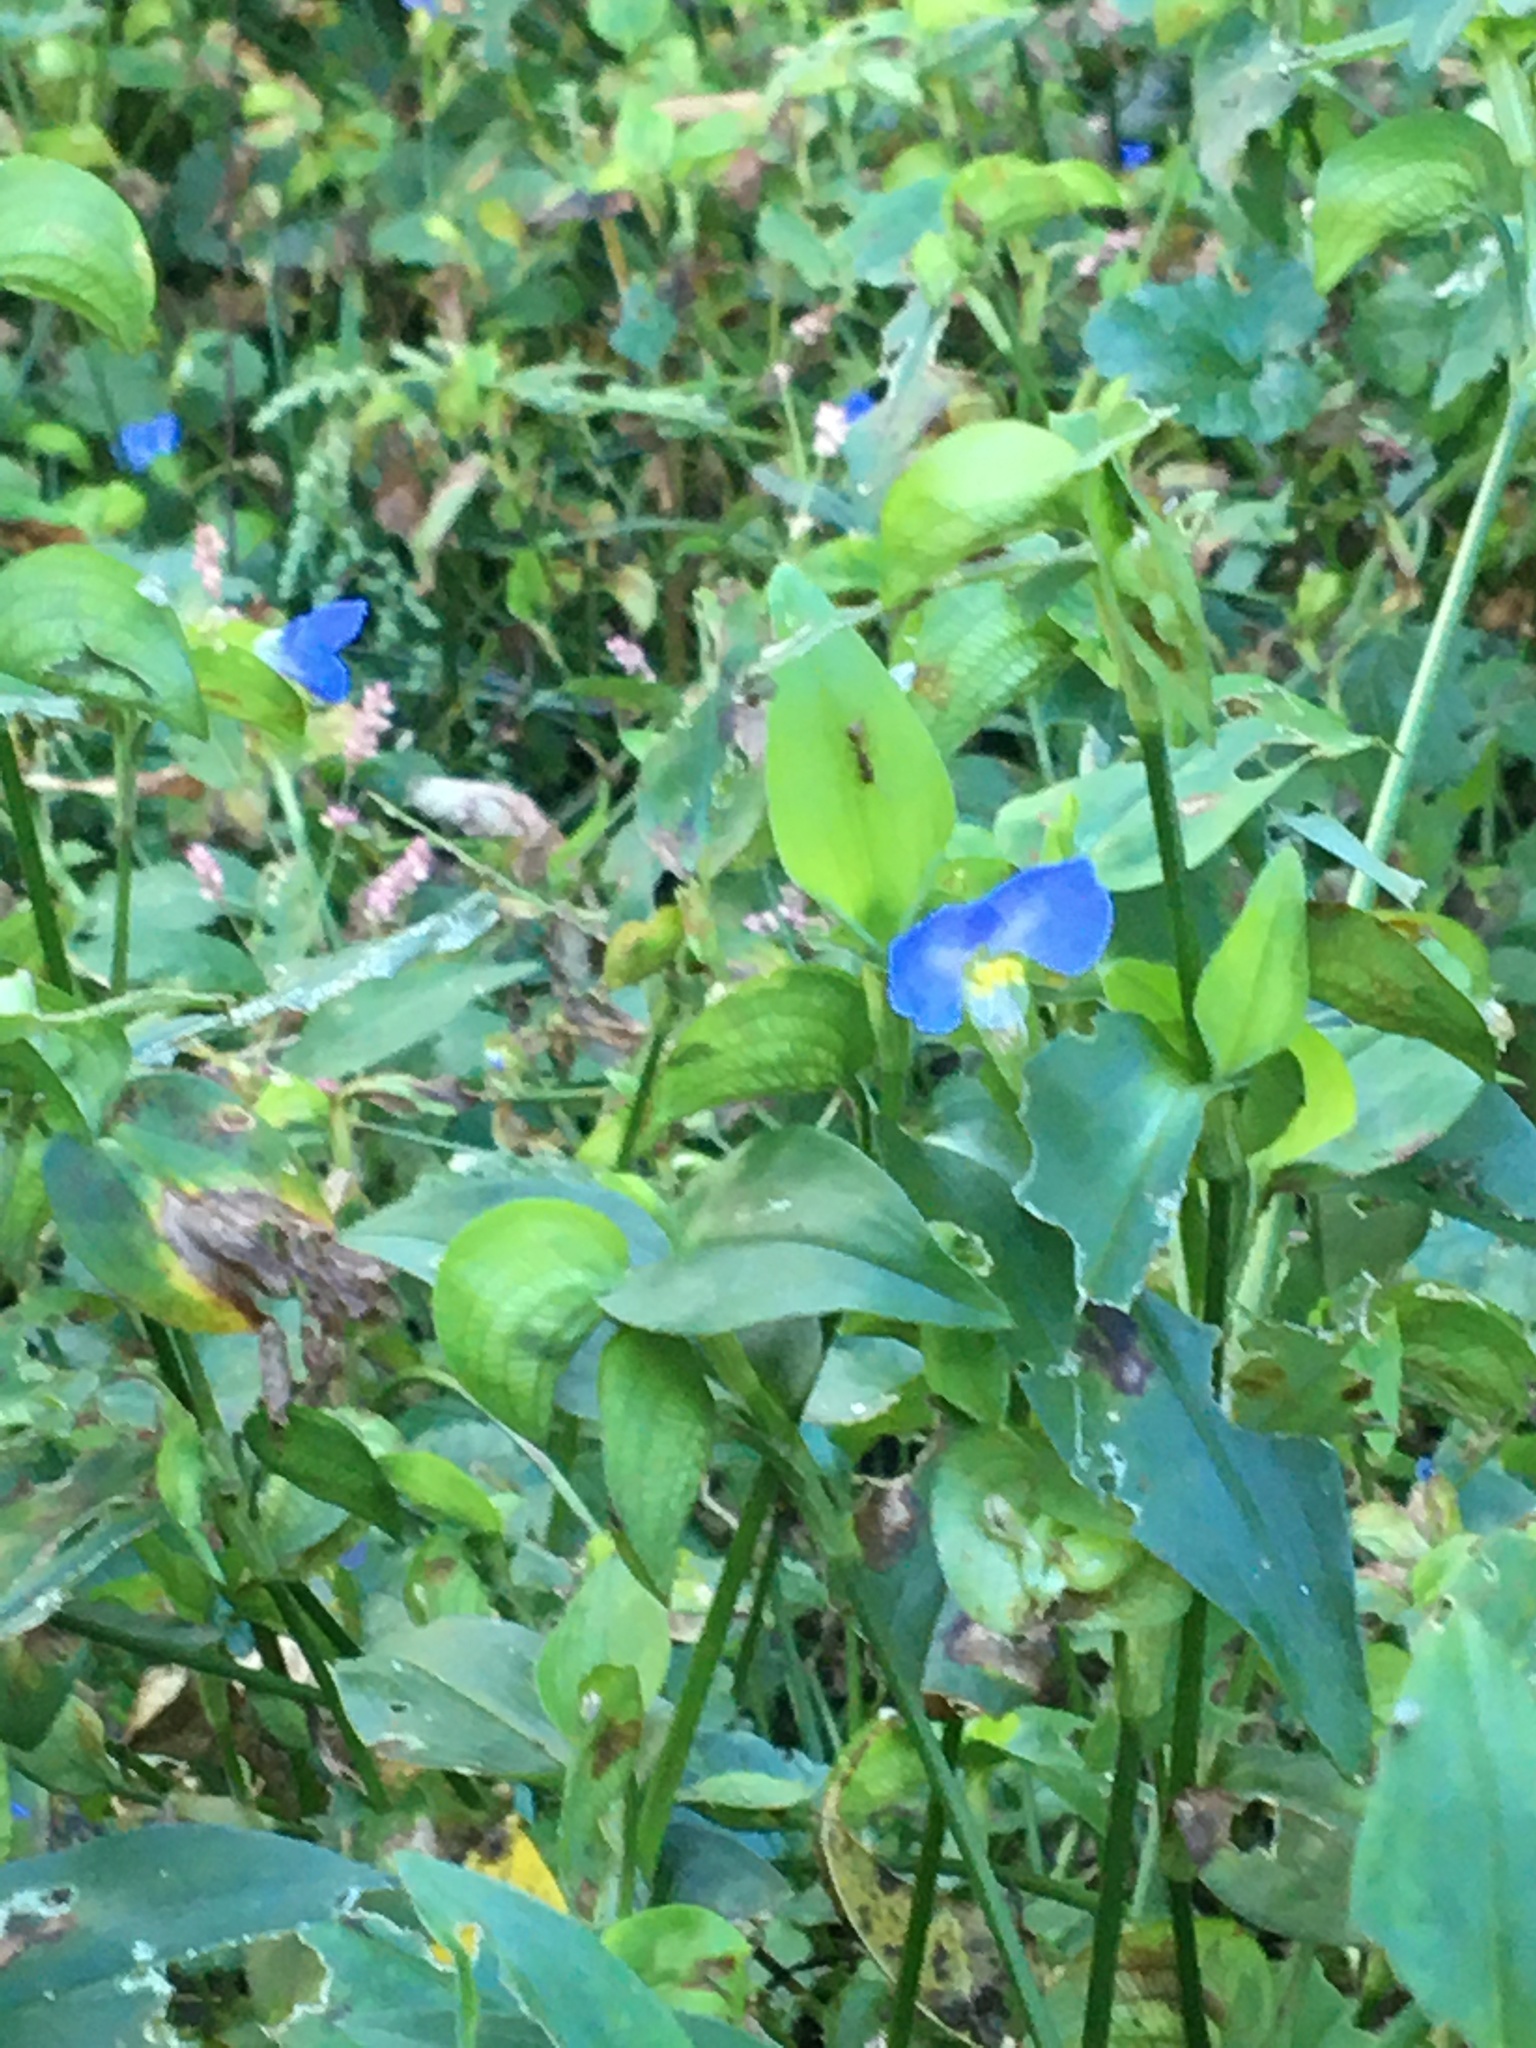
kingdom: Plantae
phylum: Tracheophyta
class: Liliopsida
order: Commelinales
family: Commelinaceae
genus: Commelina
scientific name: Commelina communis
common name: Asiatic dayflower
